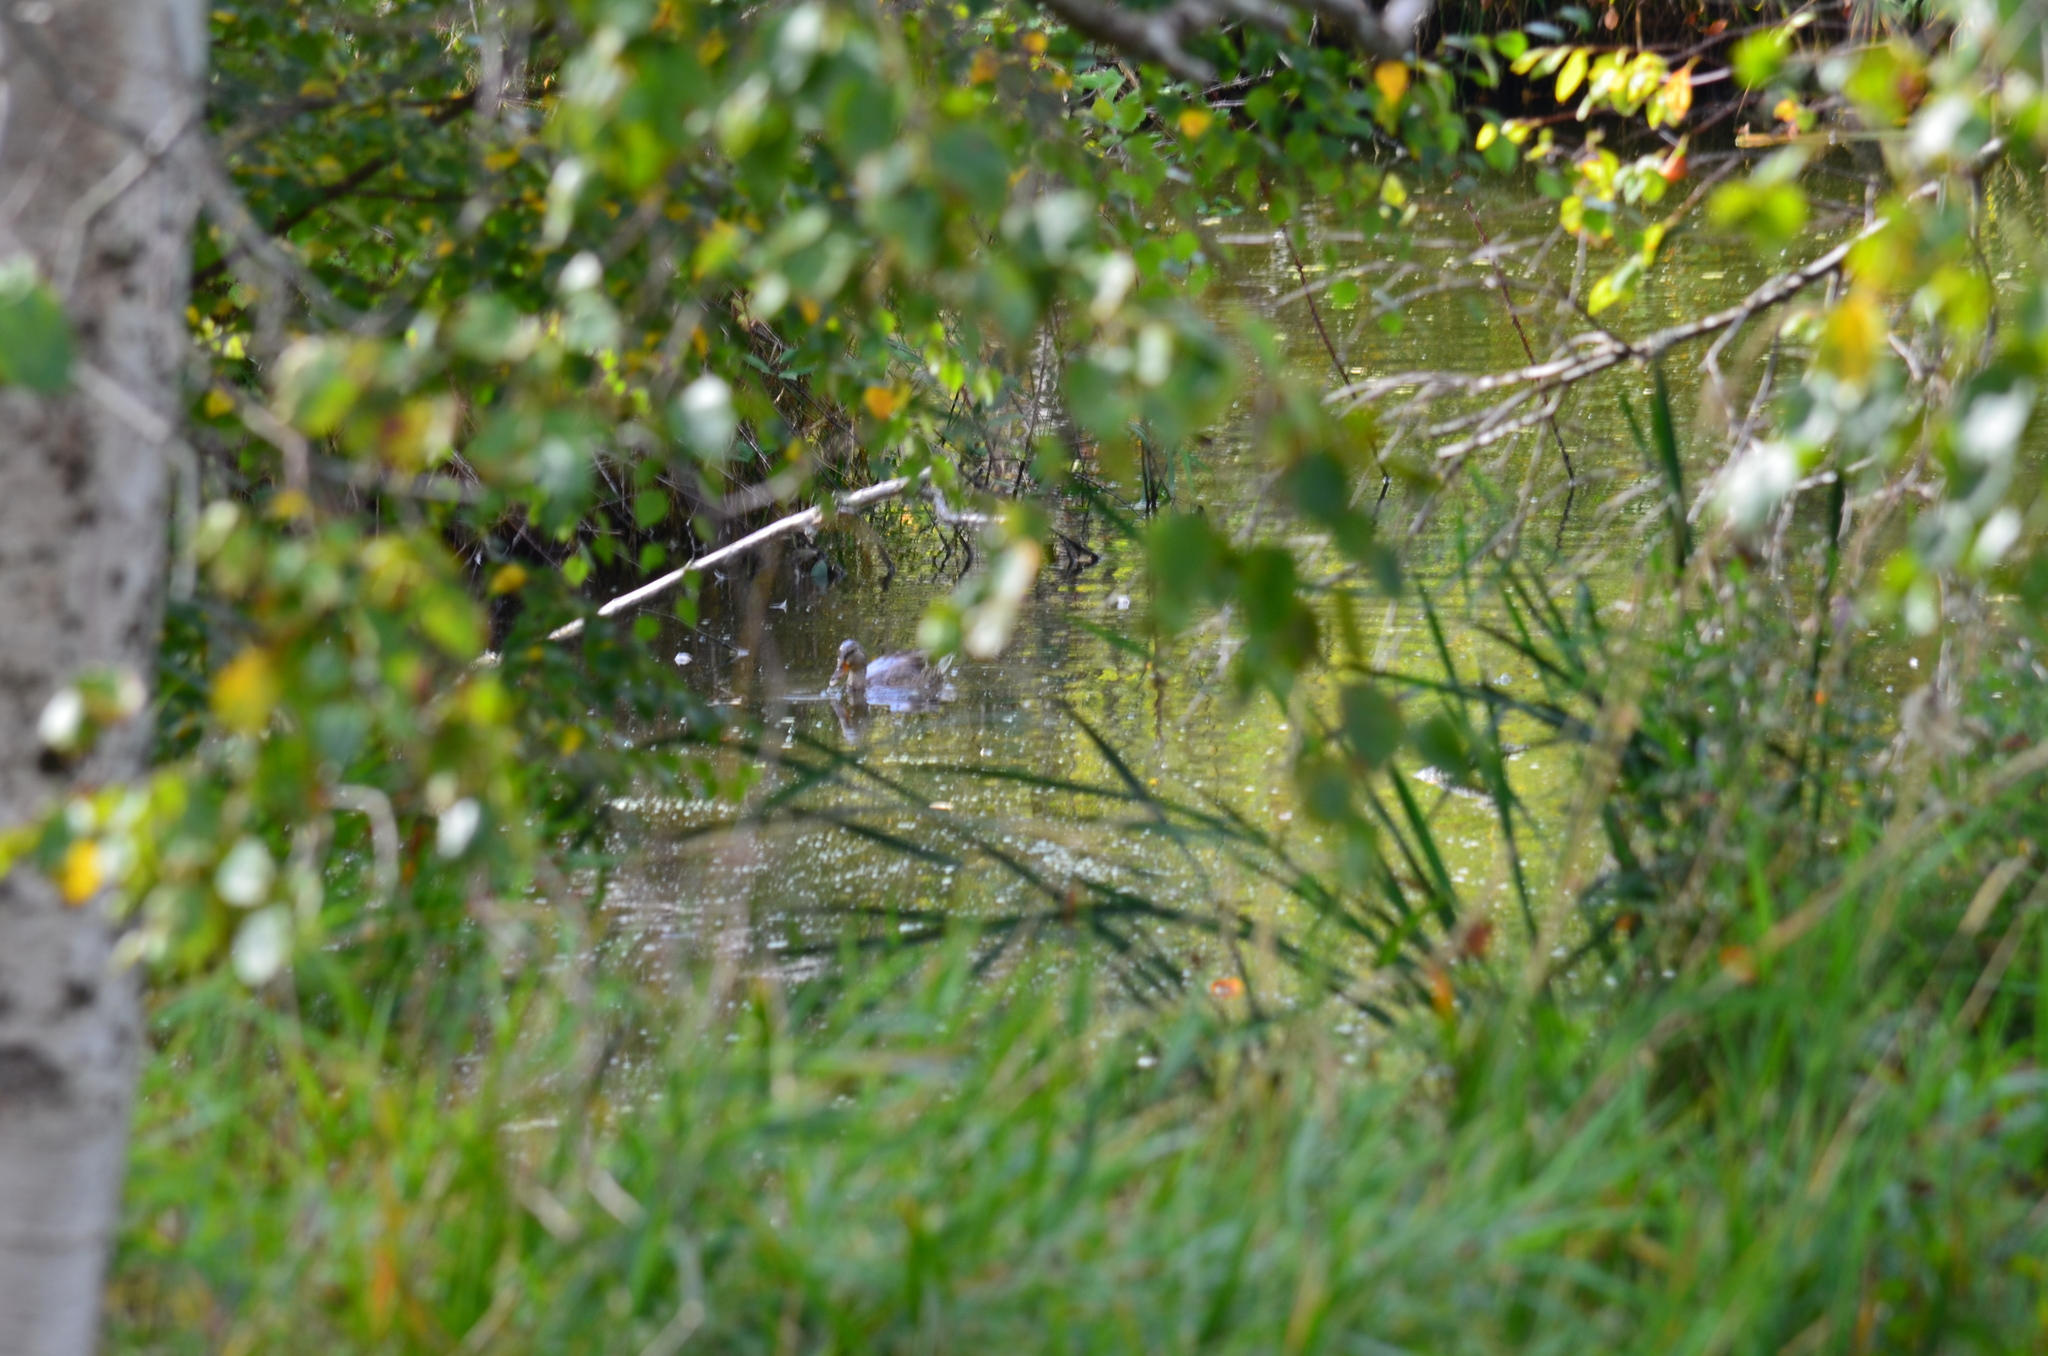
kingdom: Animalia
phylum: Chordata
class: Aves
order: Anseriformes
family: Anatidae
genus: Anas
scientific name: Anas platyrhynchos
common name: Mallard
